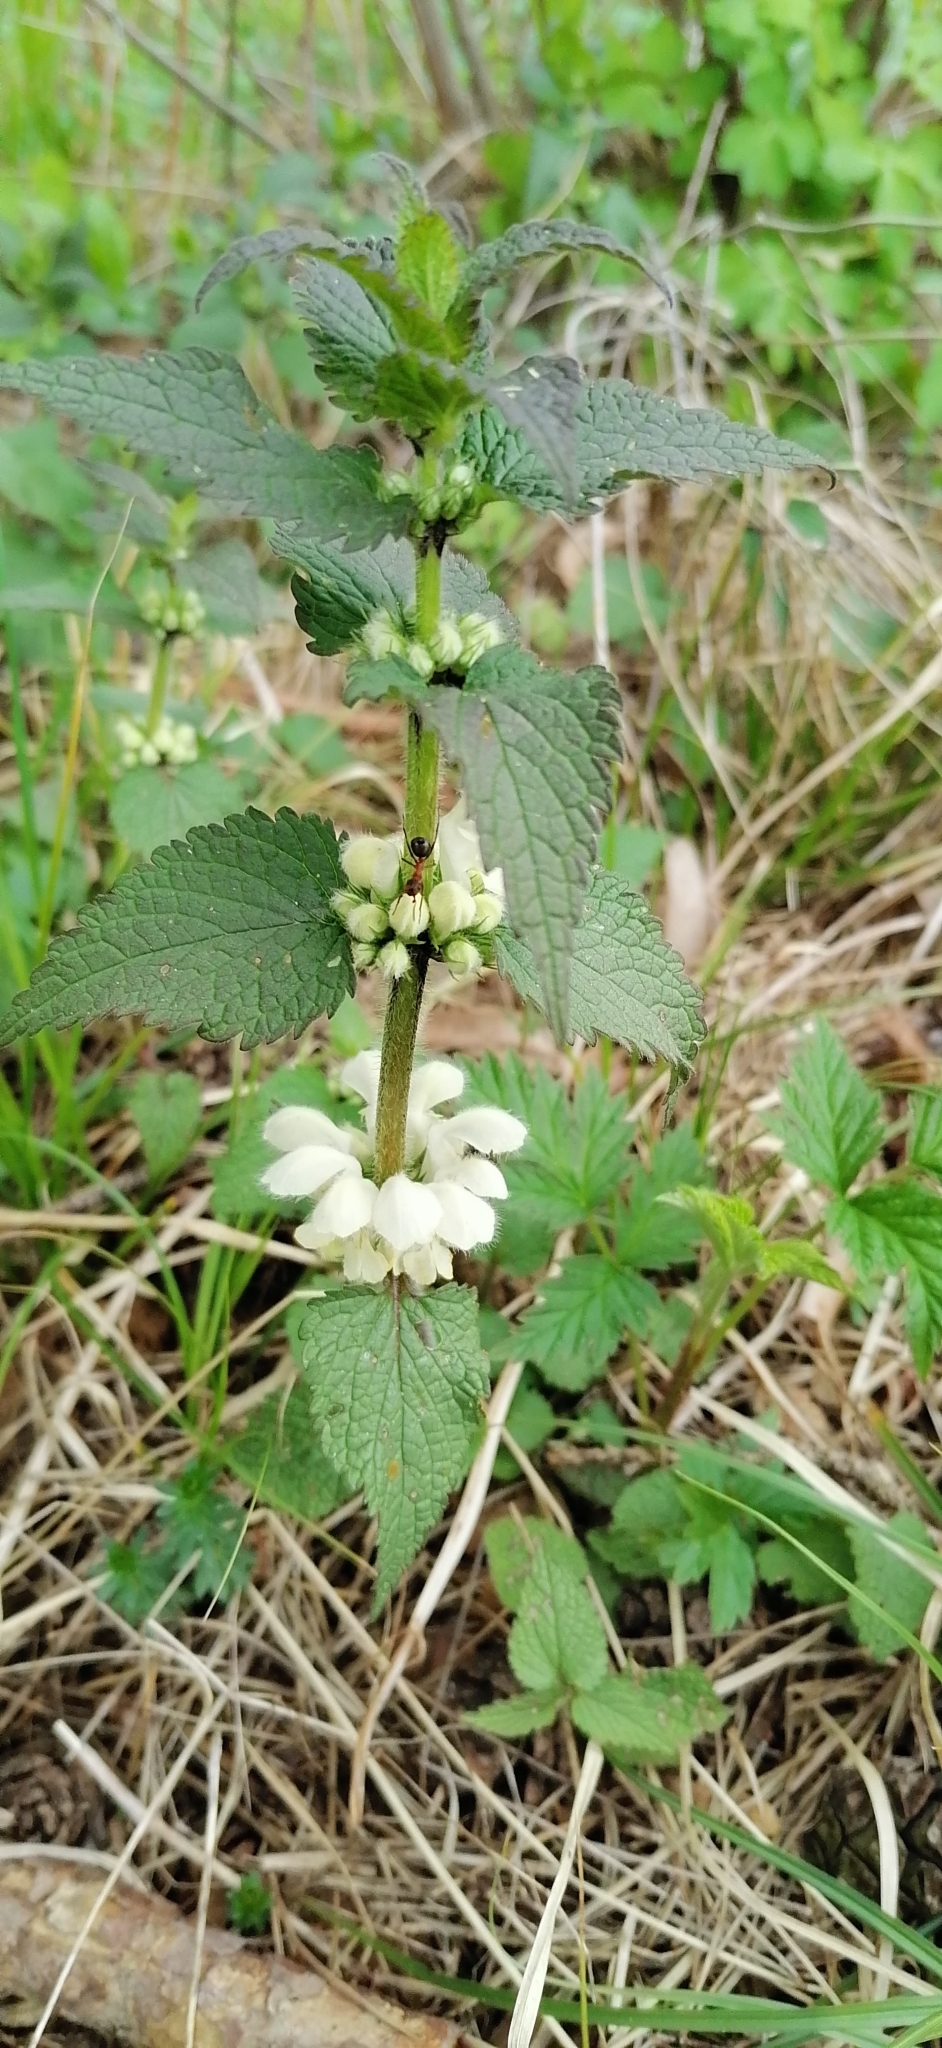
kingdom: Plantae
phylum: Tracheophyta
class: Magnoliopsida
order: Lamiales
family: Lamiaceae
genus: Lamium
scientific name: Lamium album
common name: White dead-nettle
